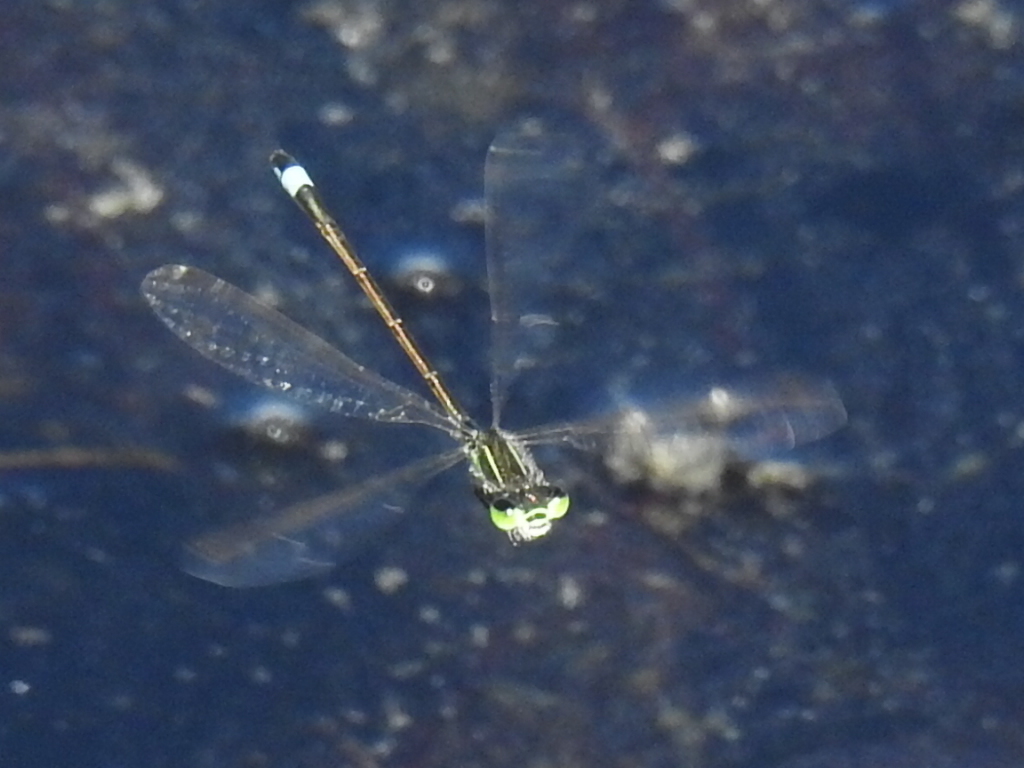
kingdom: Animalia
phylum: Arthropoda
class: Insecta
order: Odonata
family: Coenagrionidae
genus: Ischnura
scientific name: Ischnura ramburii
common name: Rambur's forktail
